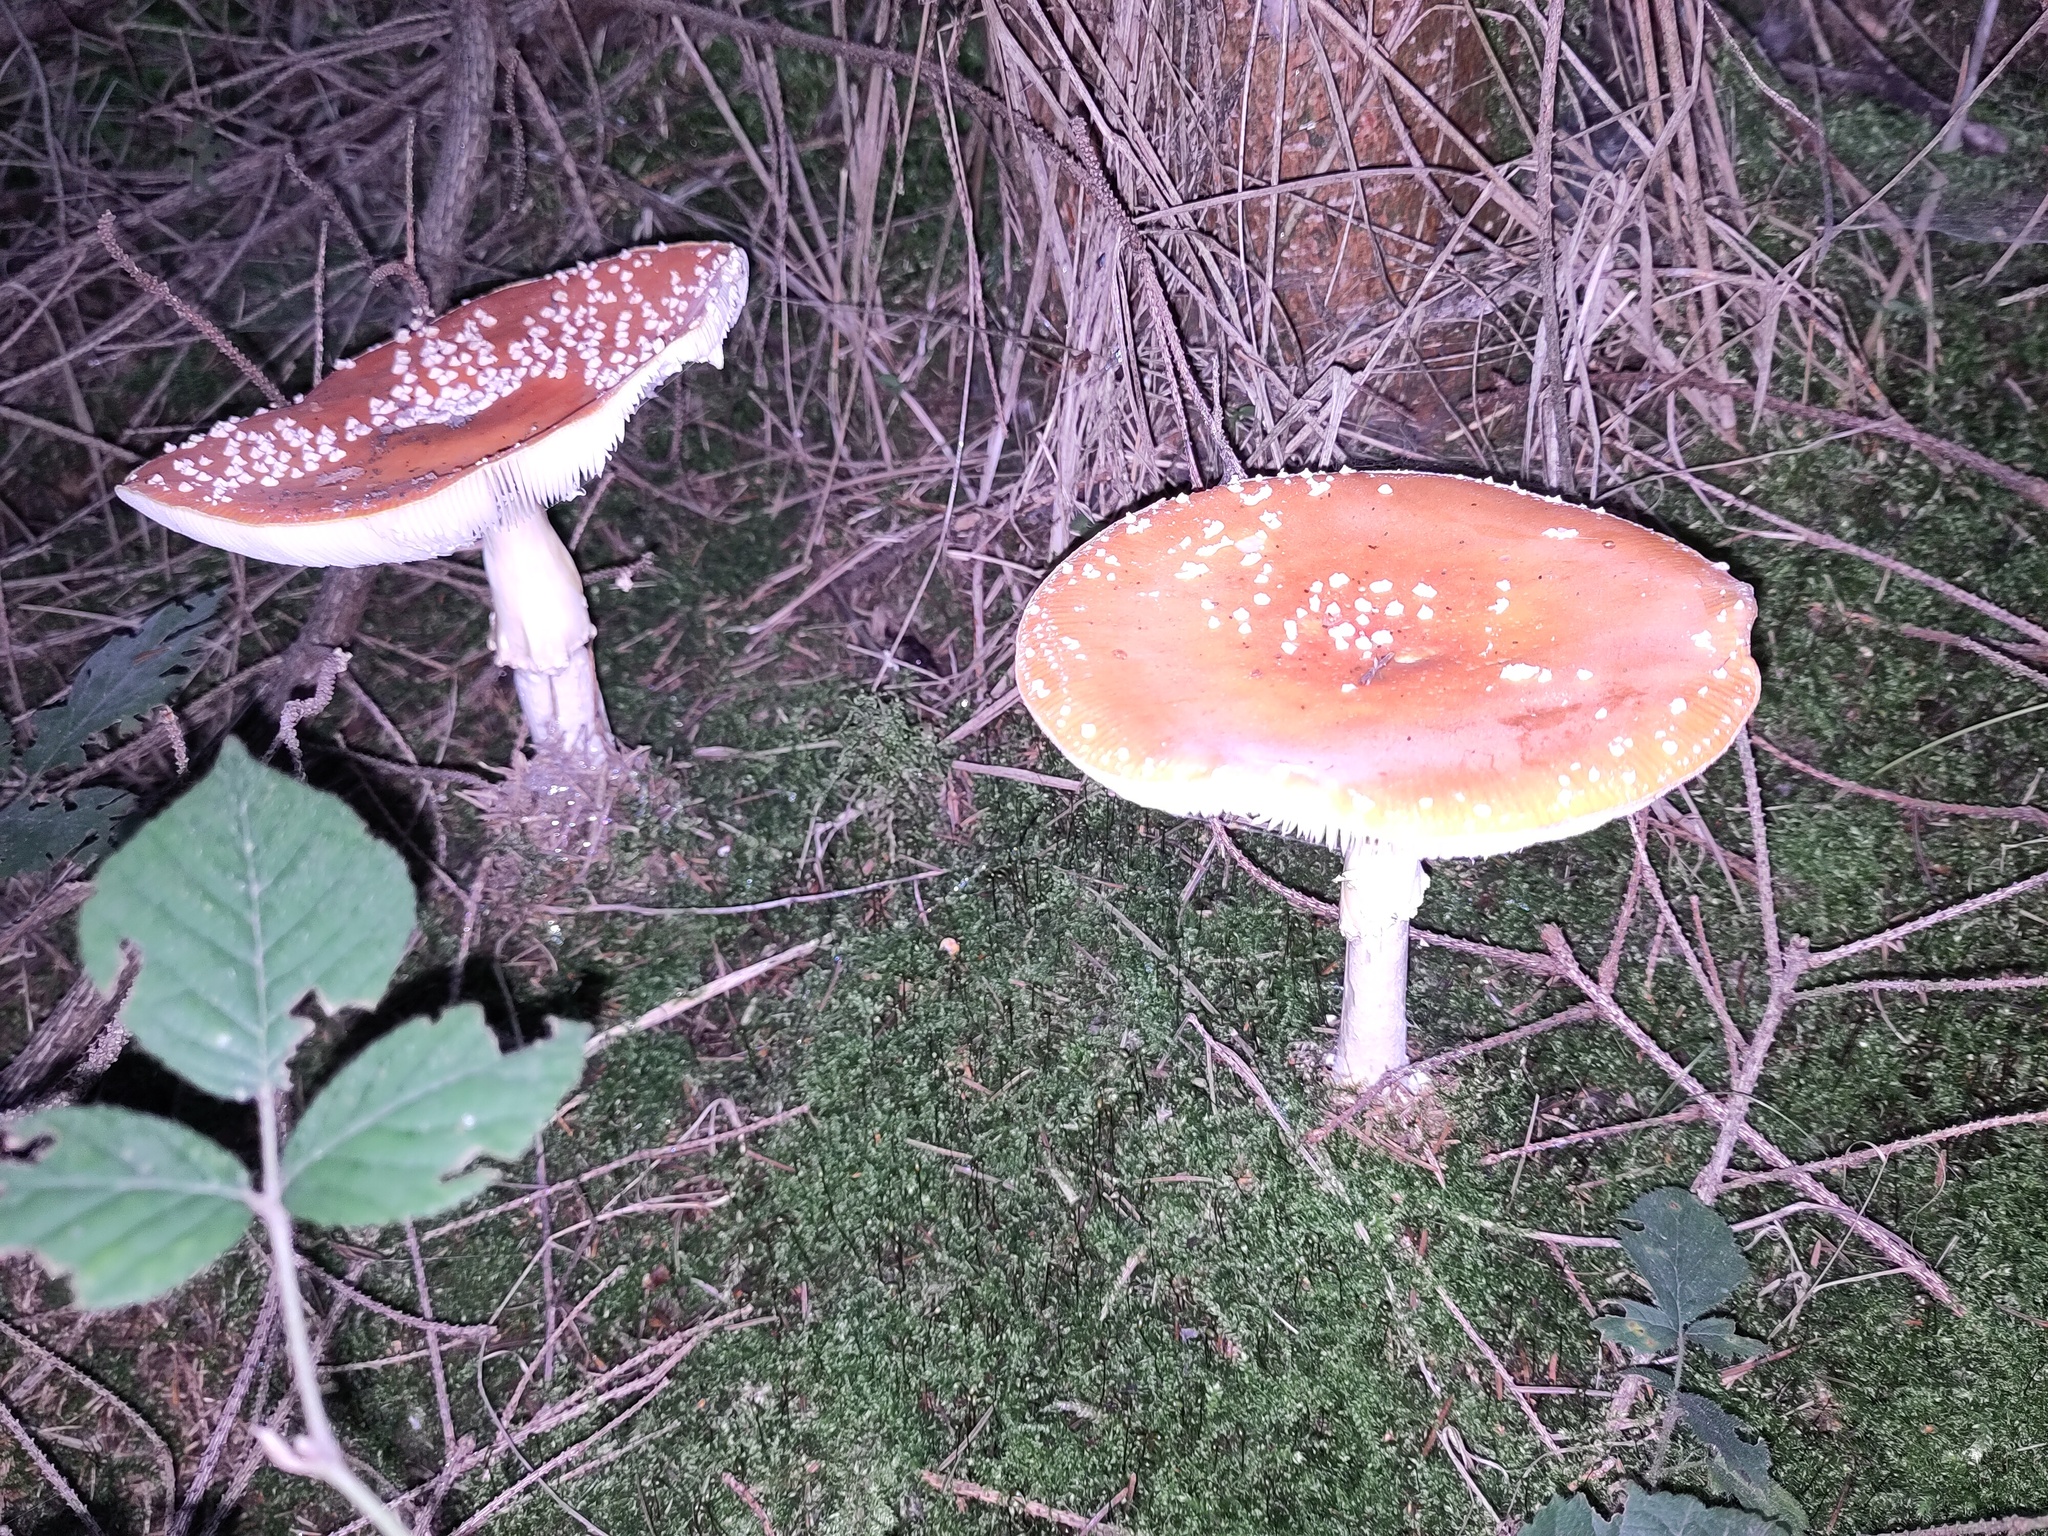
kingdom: Fungi
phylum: Basidiomycota
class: Agaricomycetes
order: Agaricales
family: Amanitaceae
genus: Amanita
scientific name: Amanita muscaria
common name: Fly agaric
